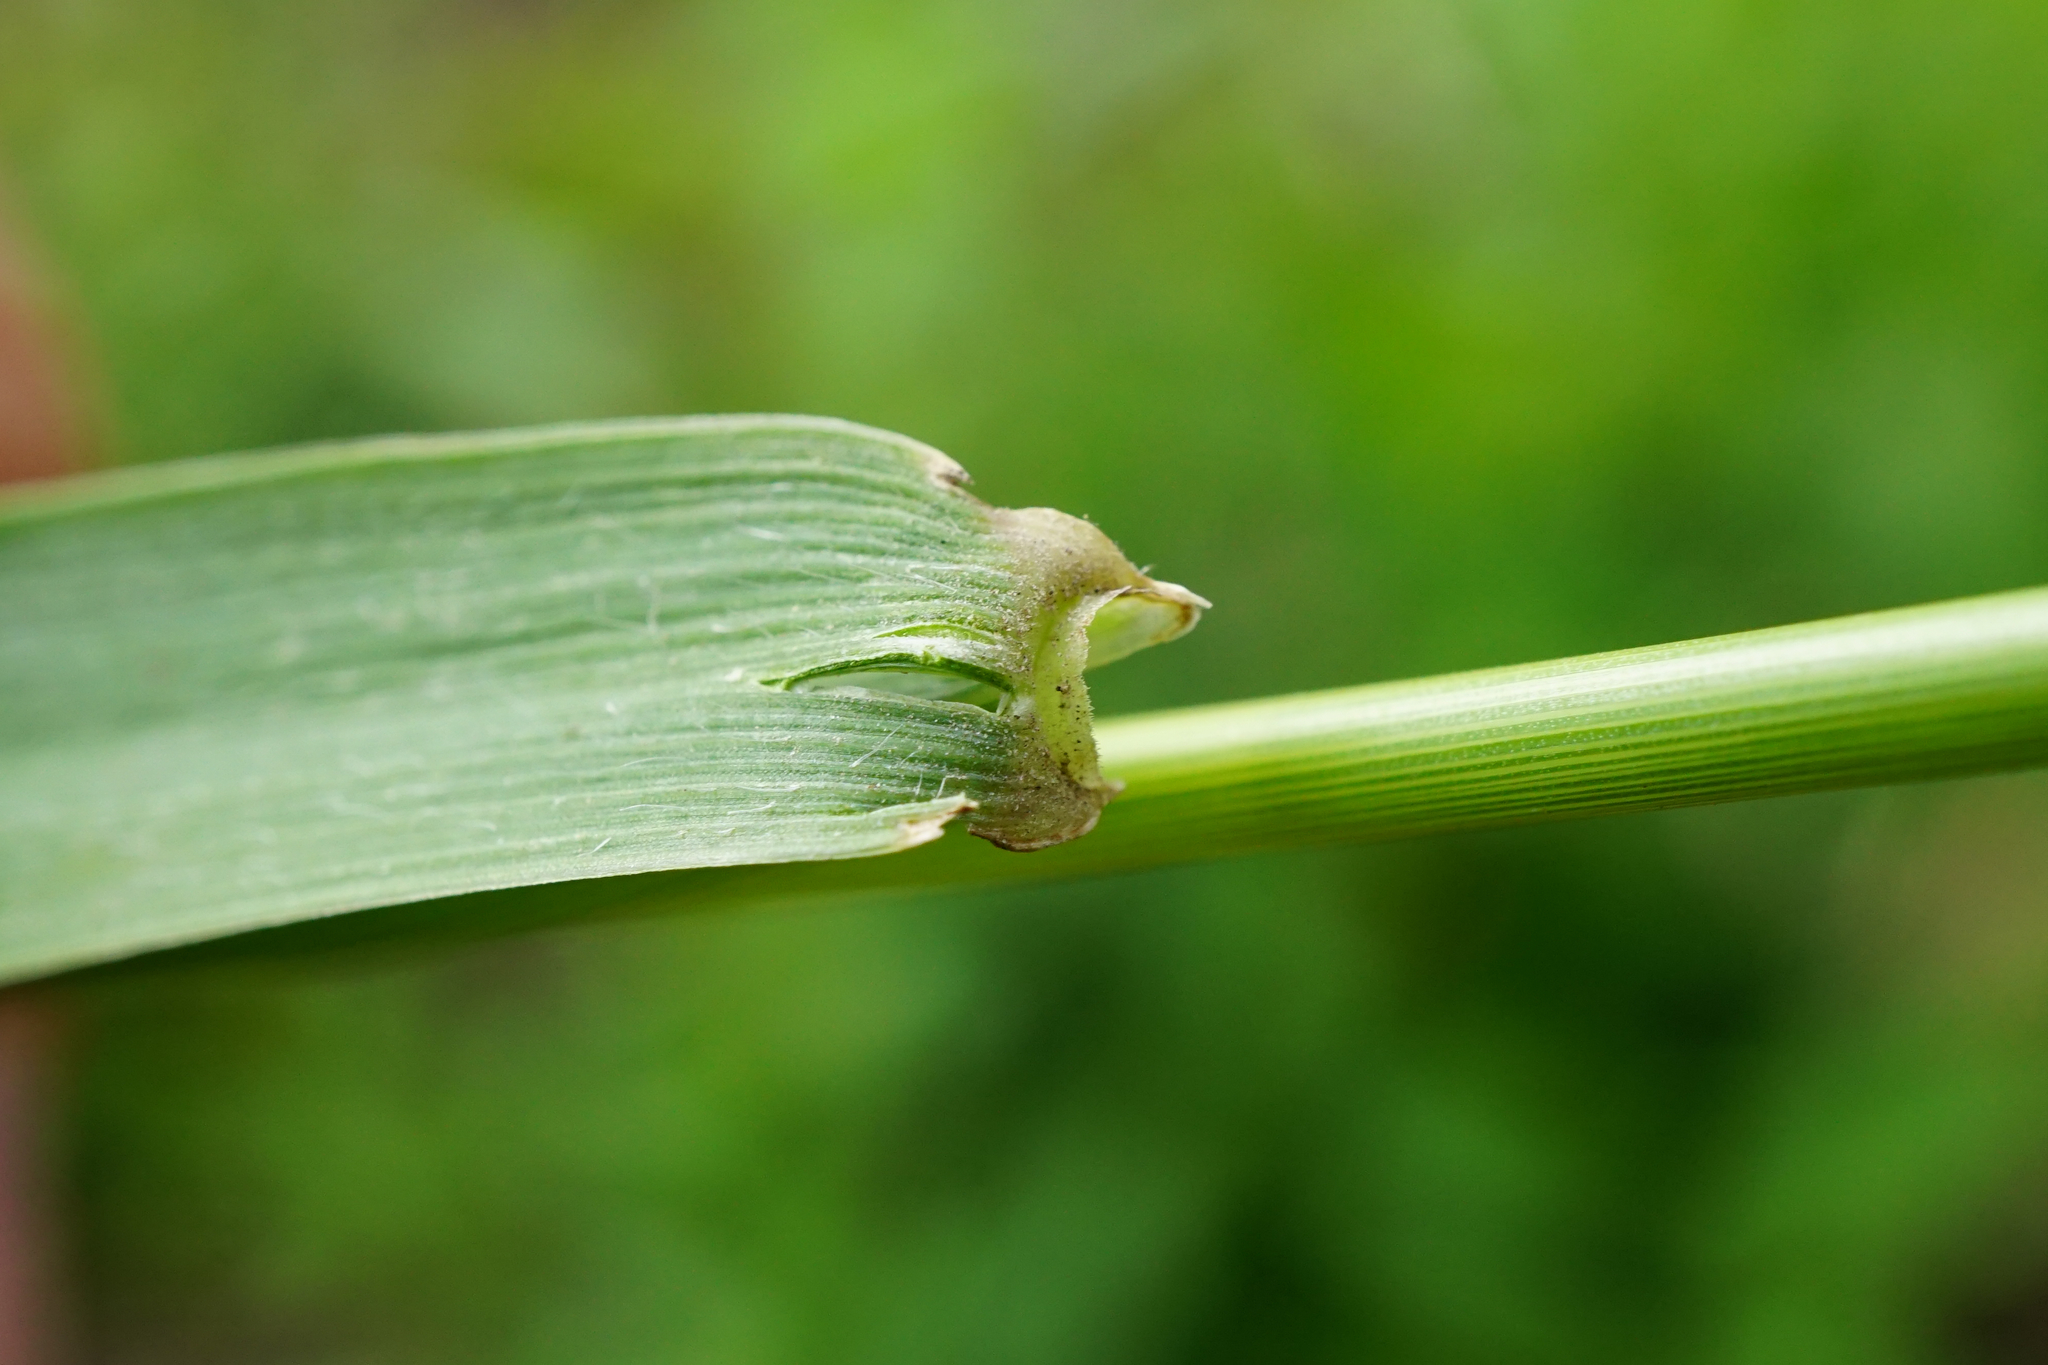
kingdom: Plantae
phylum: Tracheophyta
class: Liliopsida
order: Poales
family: Poaceae
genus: Elymus
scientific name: Elymus repens
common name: Quackgrass
